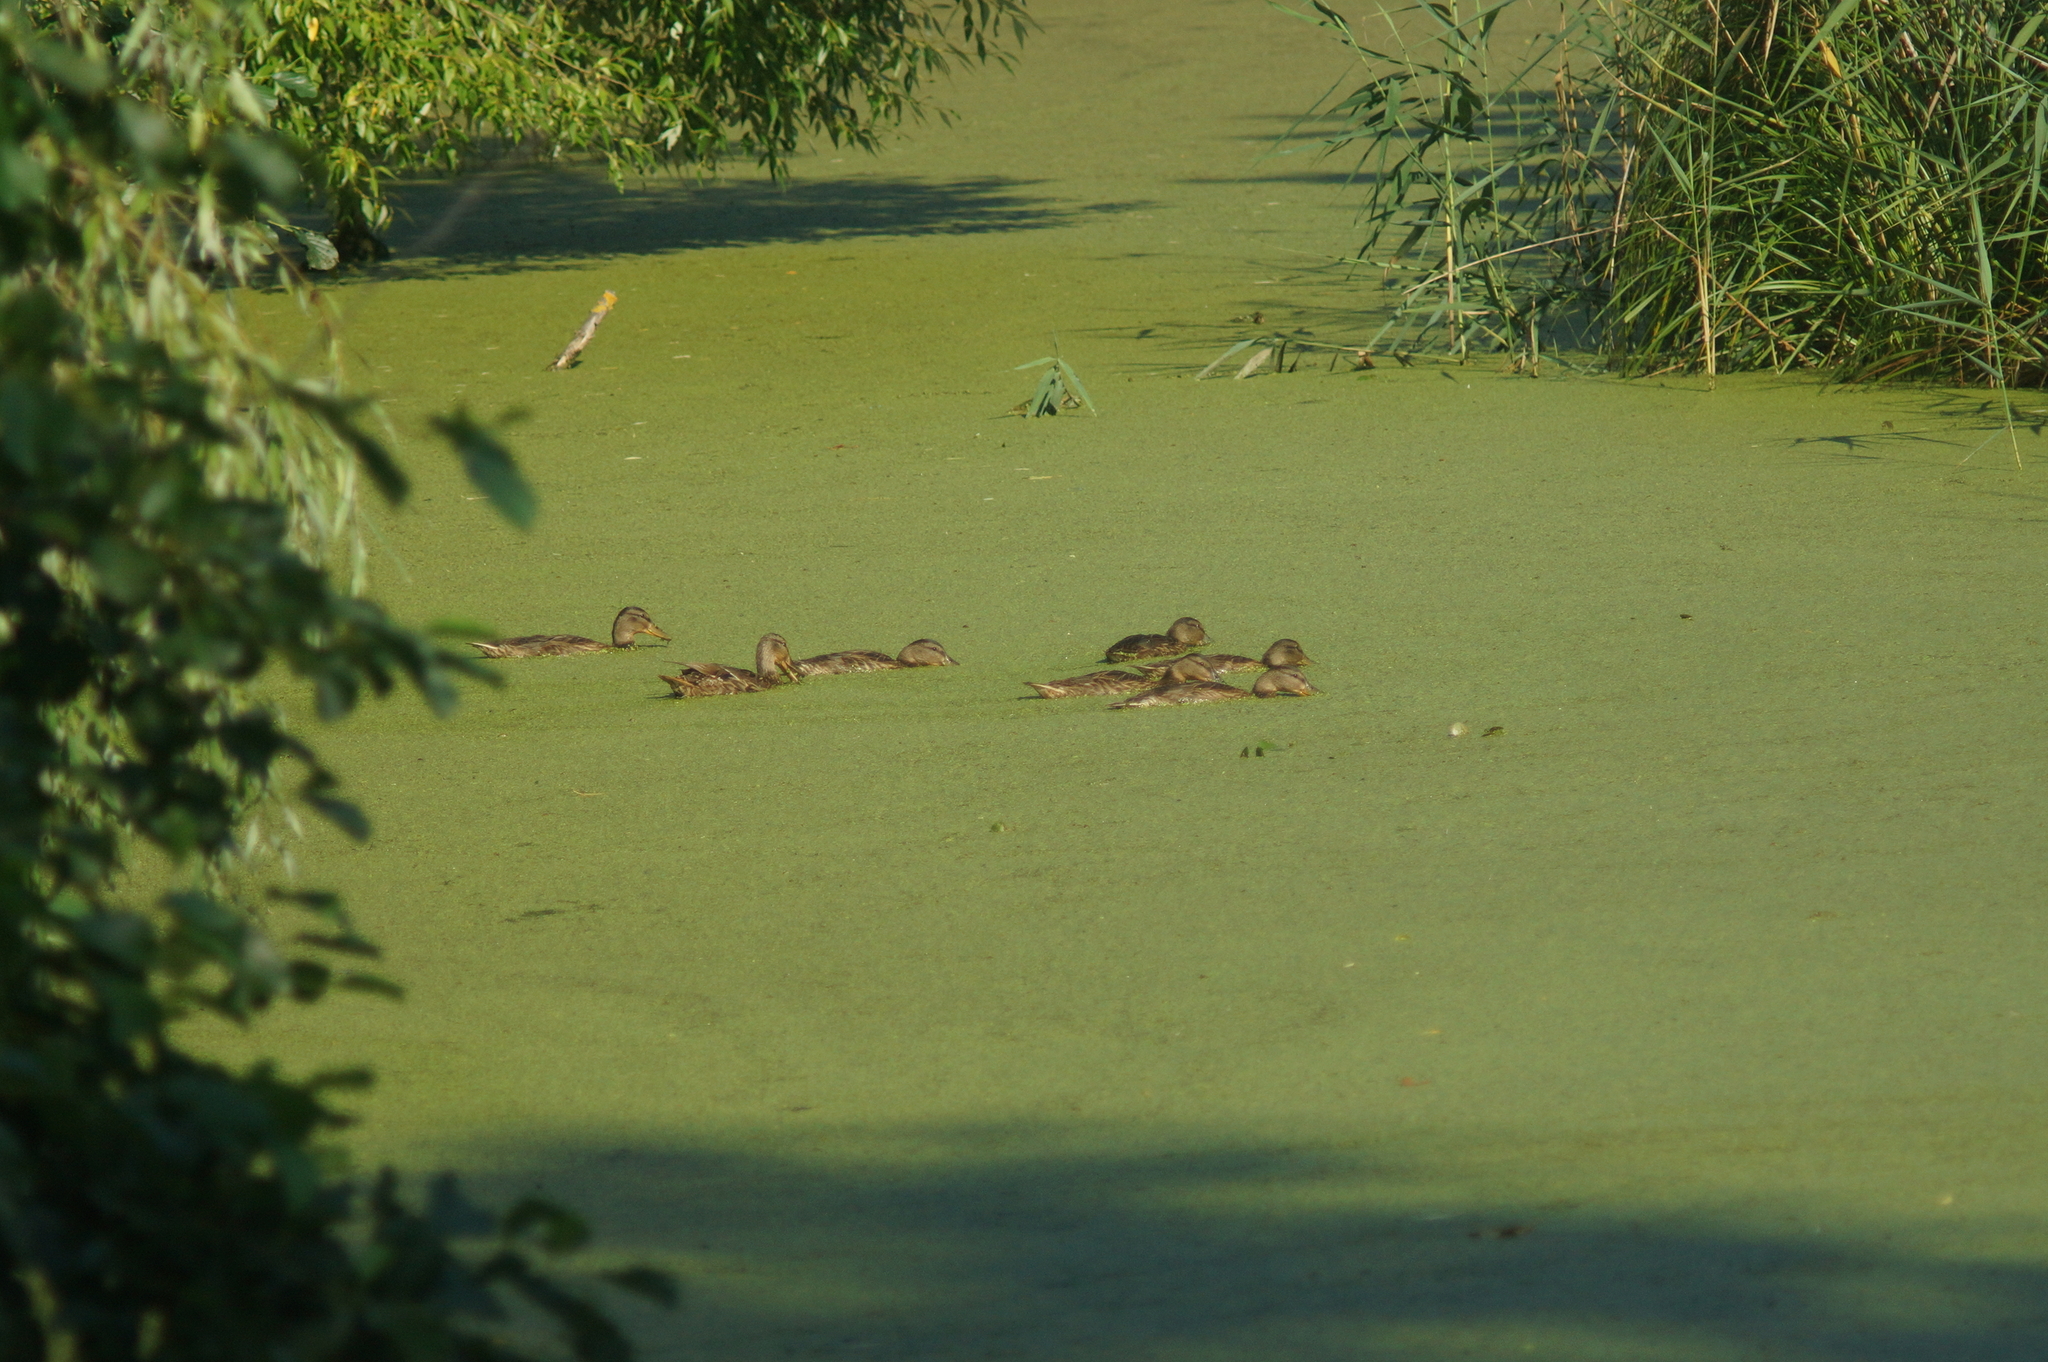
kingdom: Animalia
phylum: Chordata
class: Aves
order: Anseriformes
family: Anatidae
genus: Anas
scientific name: Anas platyrhynchos
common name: Mallard
